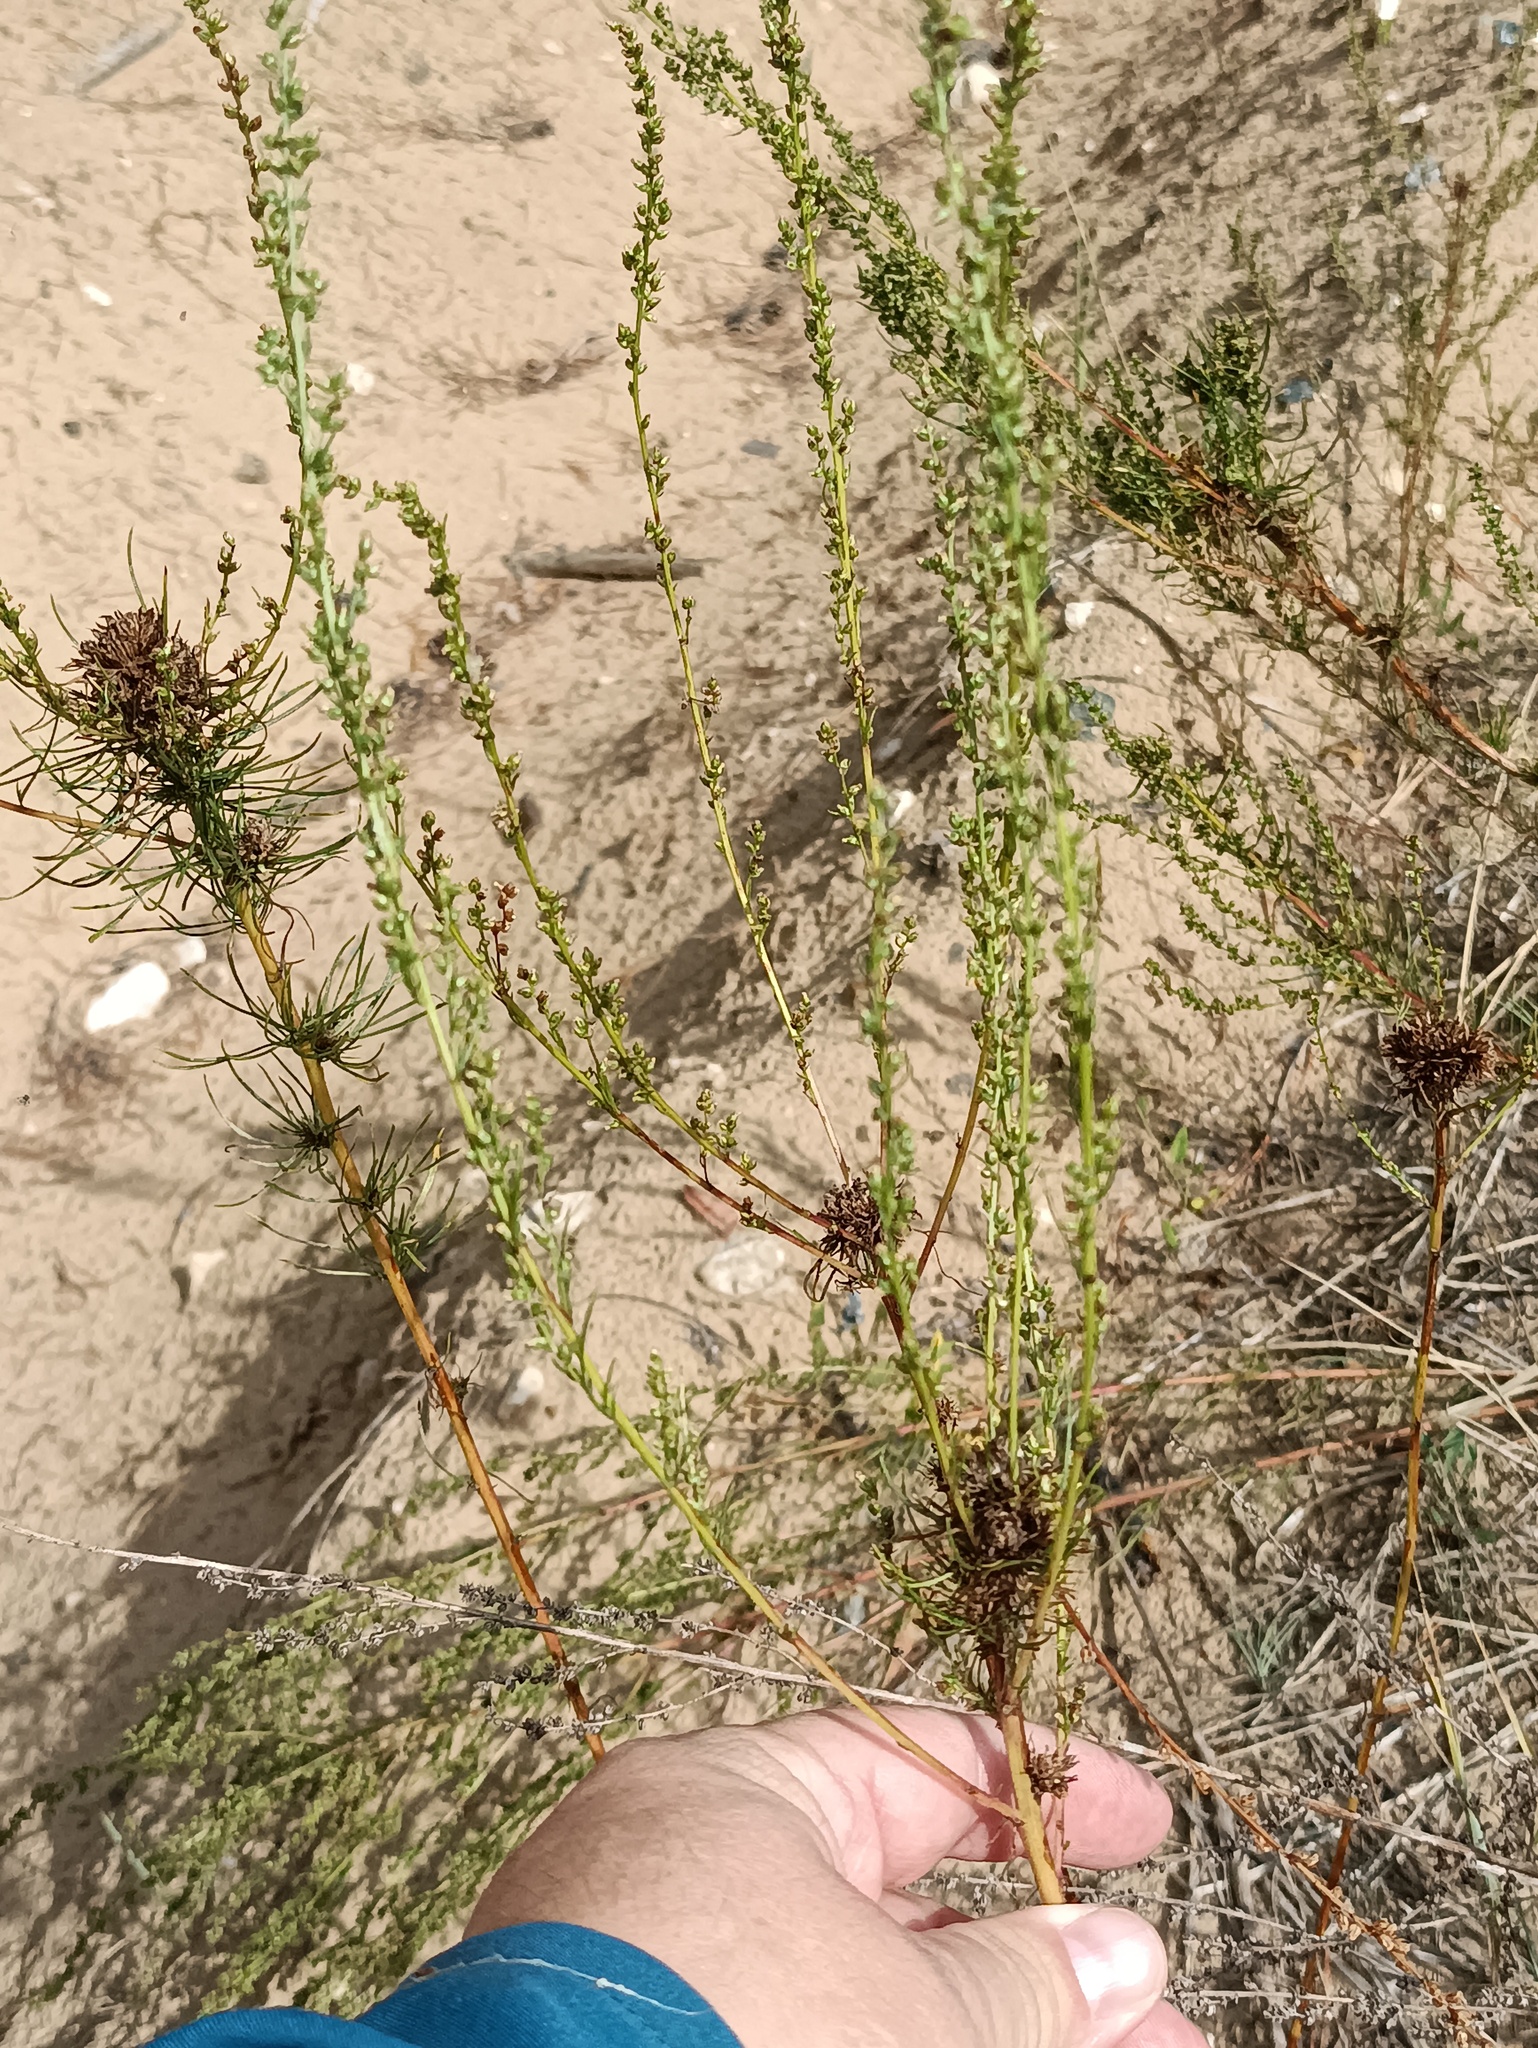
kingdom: Plantae
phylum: Tracheophyta
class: Magnoliopsida
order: Asterales
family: Asteraceae
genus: Artemisia
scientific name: Artemisia campestris
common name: Field wormwood
